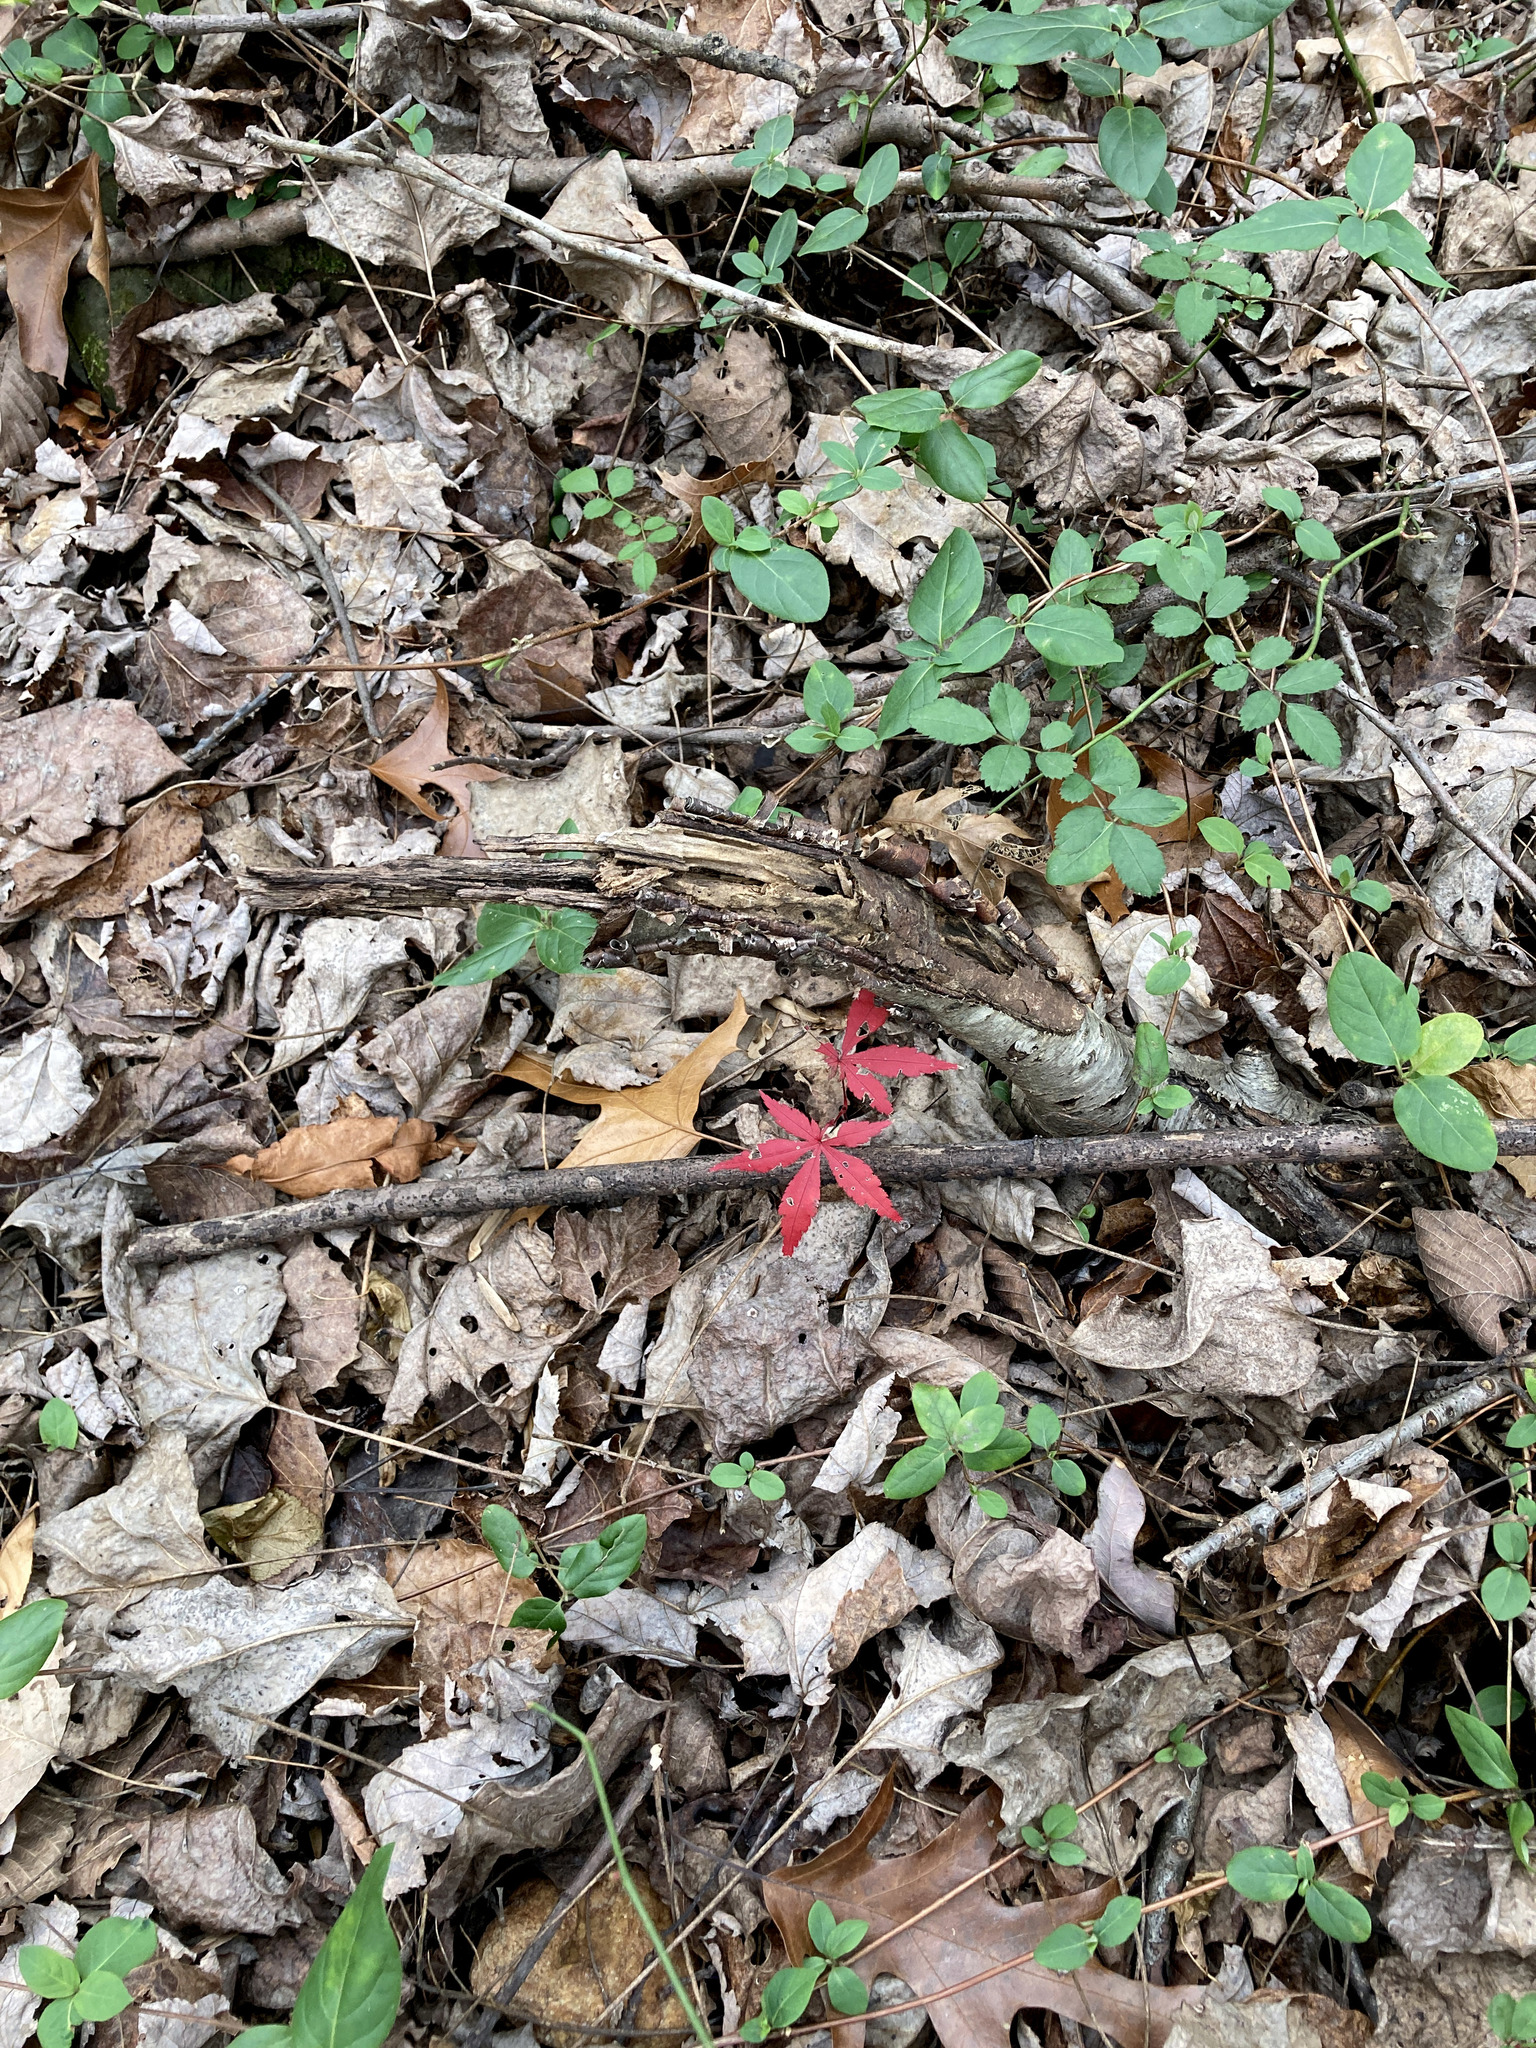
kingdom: Plantae
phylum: Tracheophyta
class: Magnoliopsida
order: Sapindales
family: Sapindaceae
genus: Acer
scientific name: Acer palmatum
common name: Japanese maple
